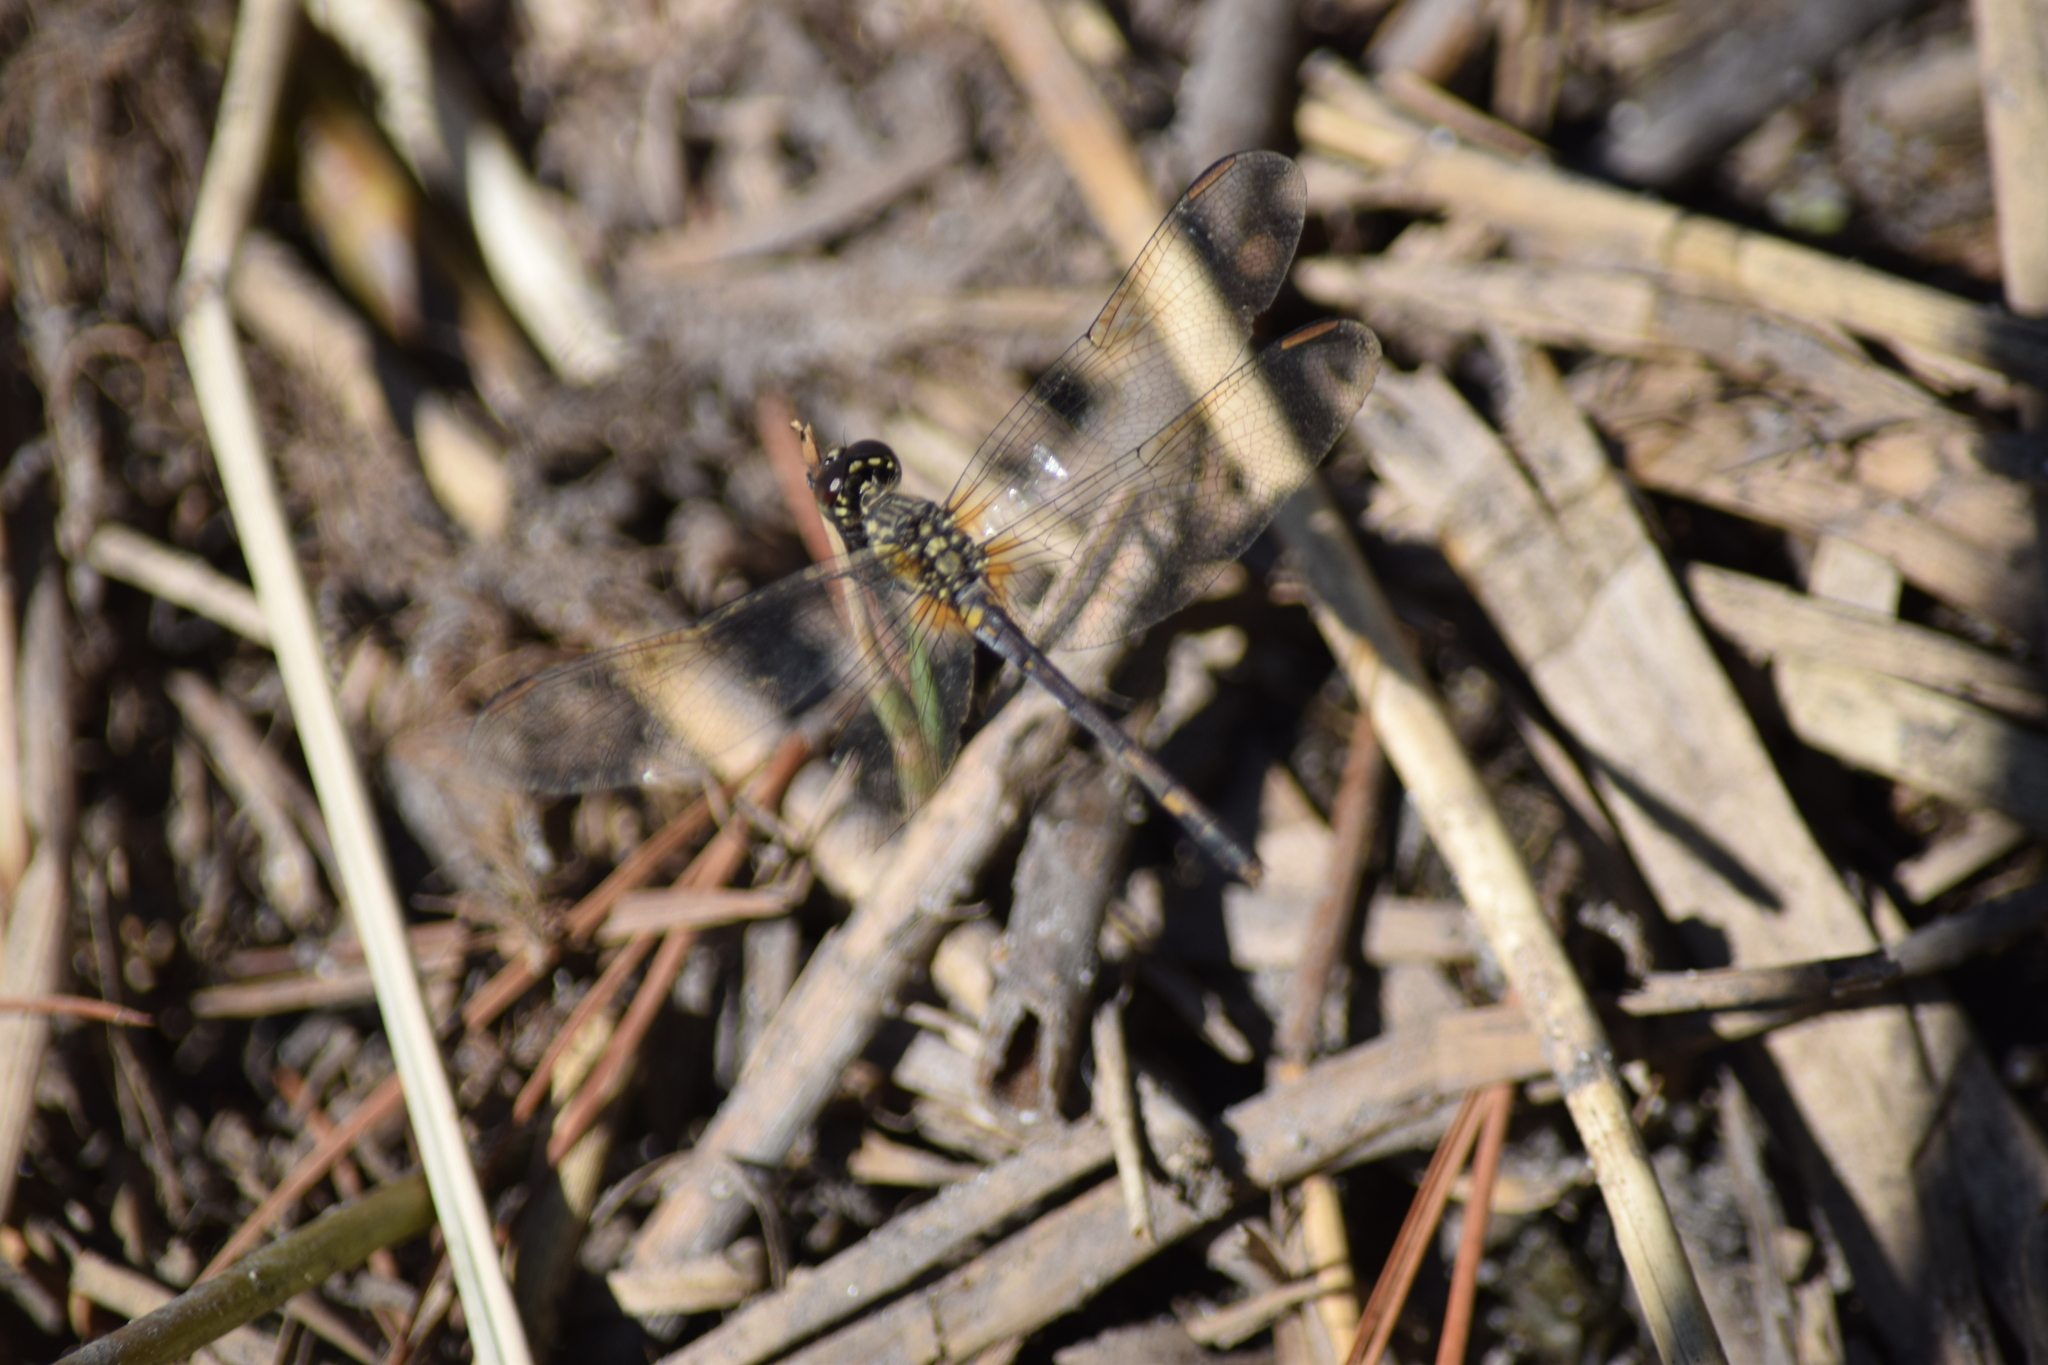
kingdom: Animalia
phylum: Arthropoda
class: Insecta
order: Odonata
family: Libellulidae
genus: Erythrodiplax
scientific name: Erythrodiplax berenice
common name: Seaside dragonlet
